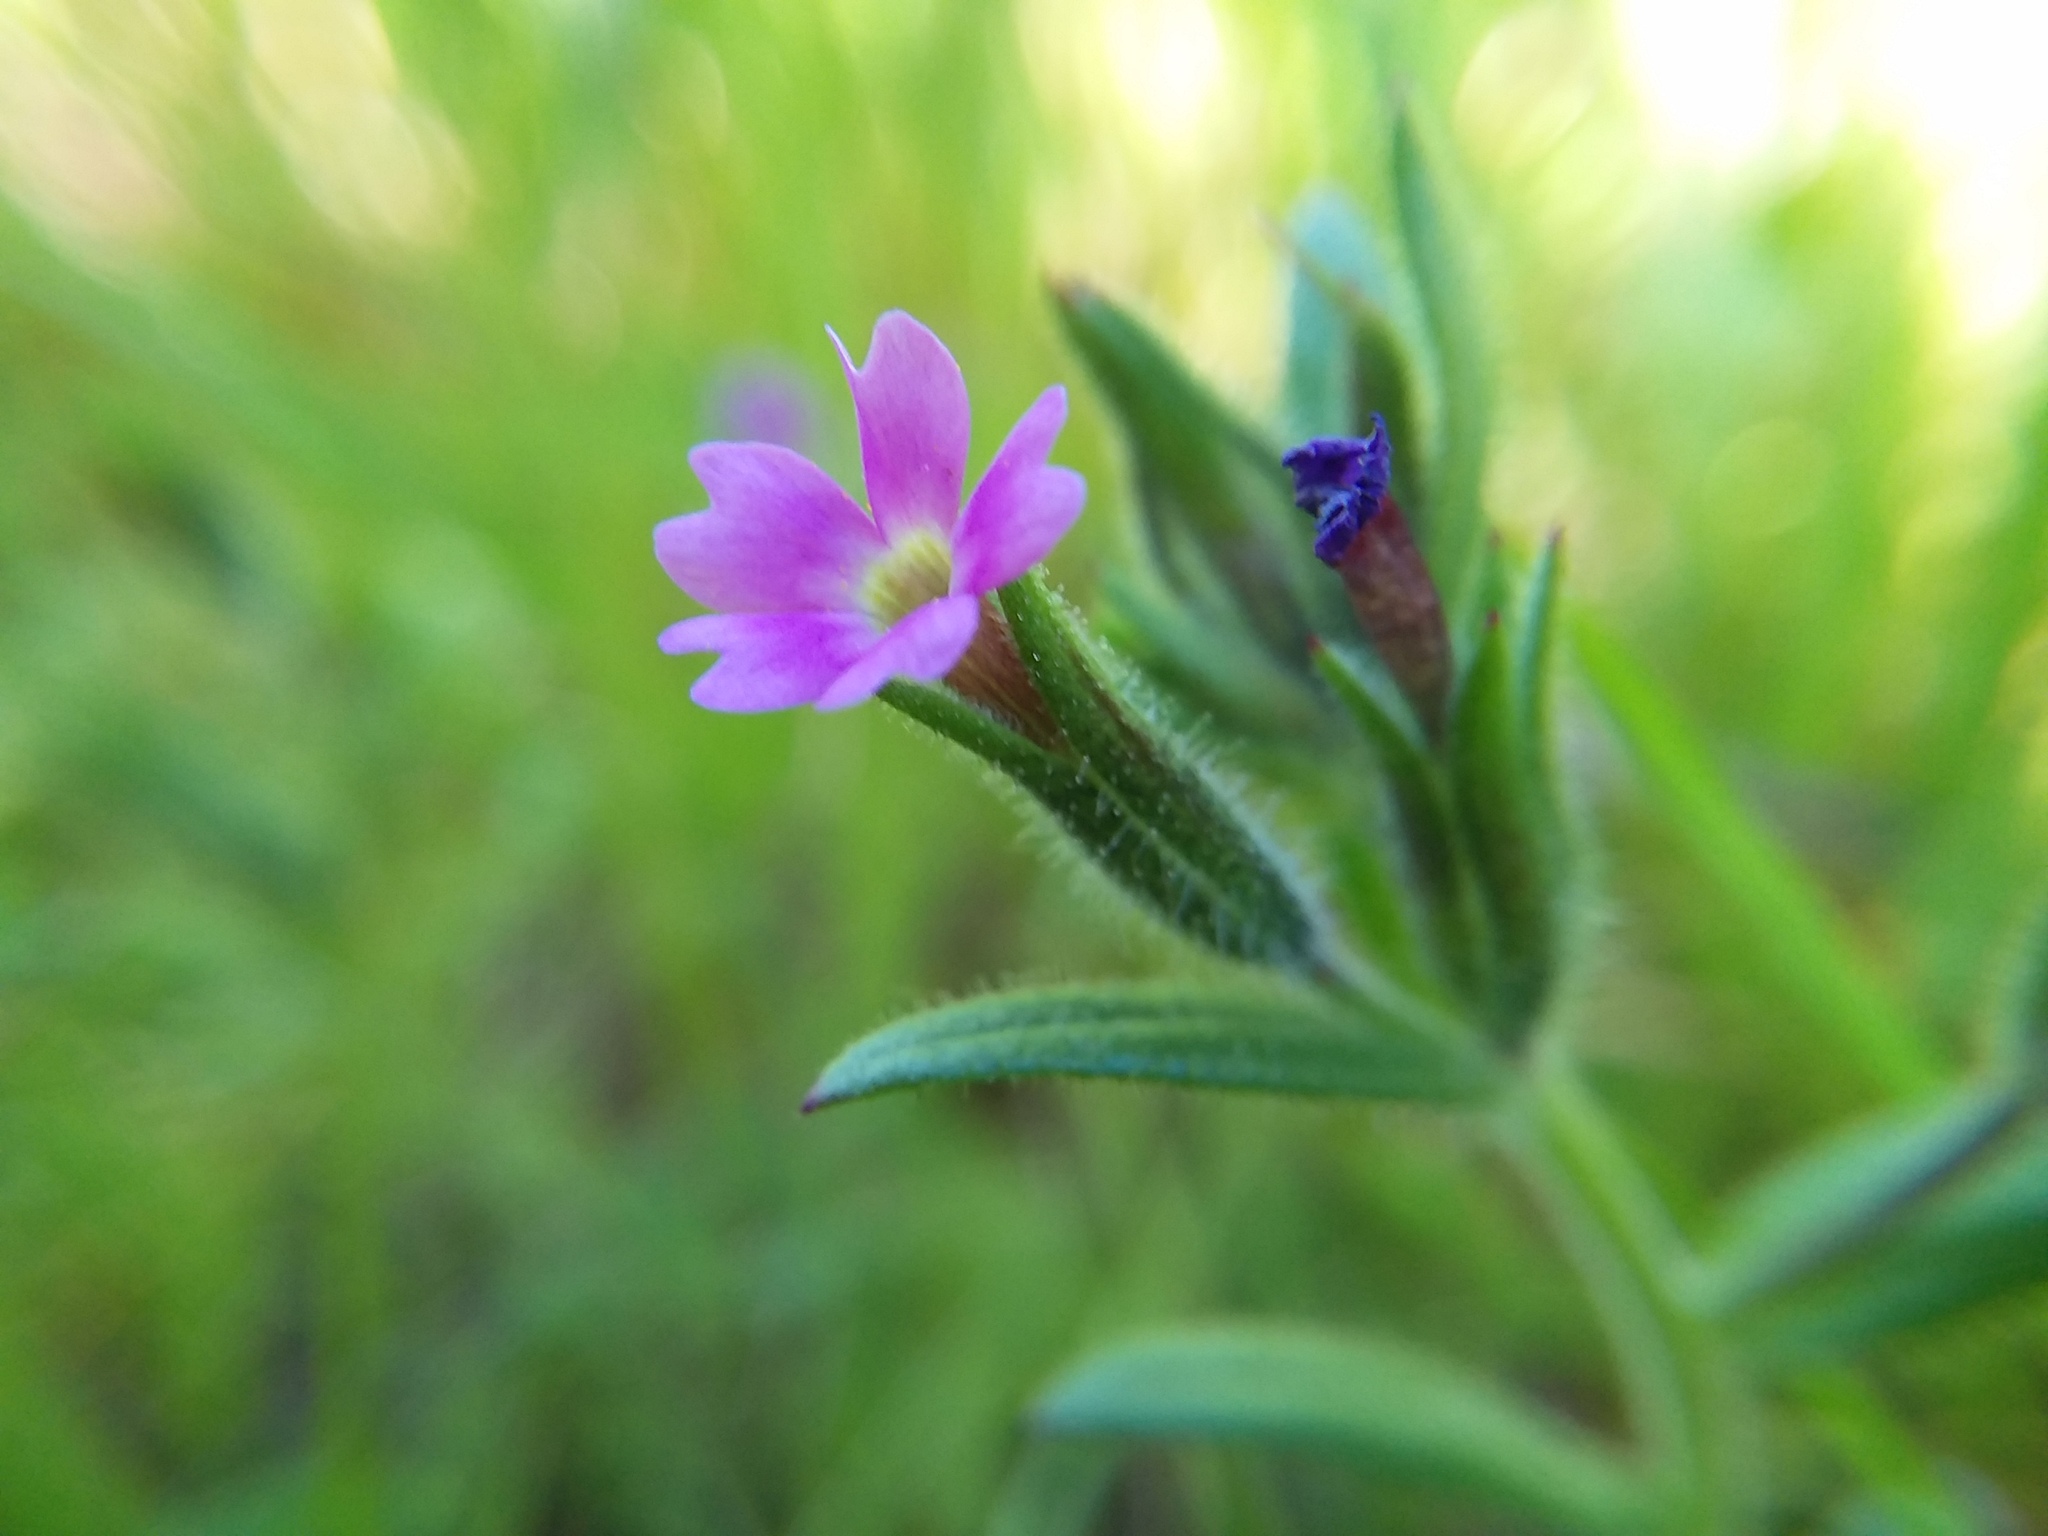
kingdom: Plantae
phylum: Tracheophyta
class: Magnoliopsida
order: Ericales
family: Polemoniaceae
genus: Phlox
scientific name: Phlox gracilis
